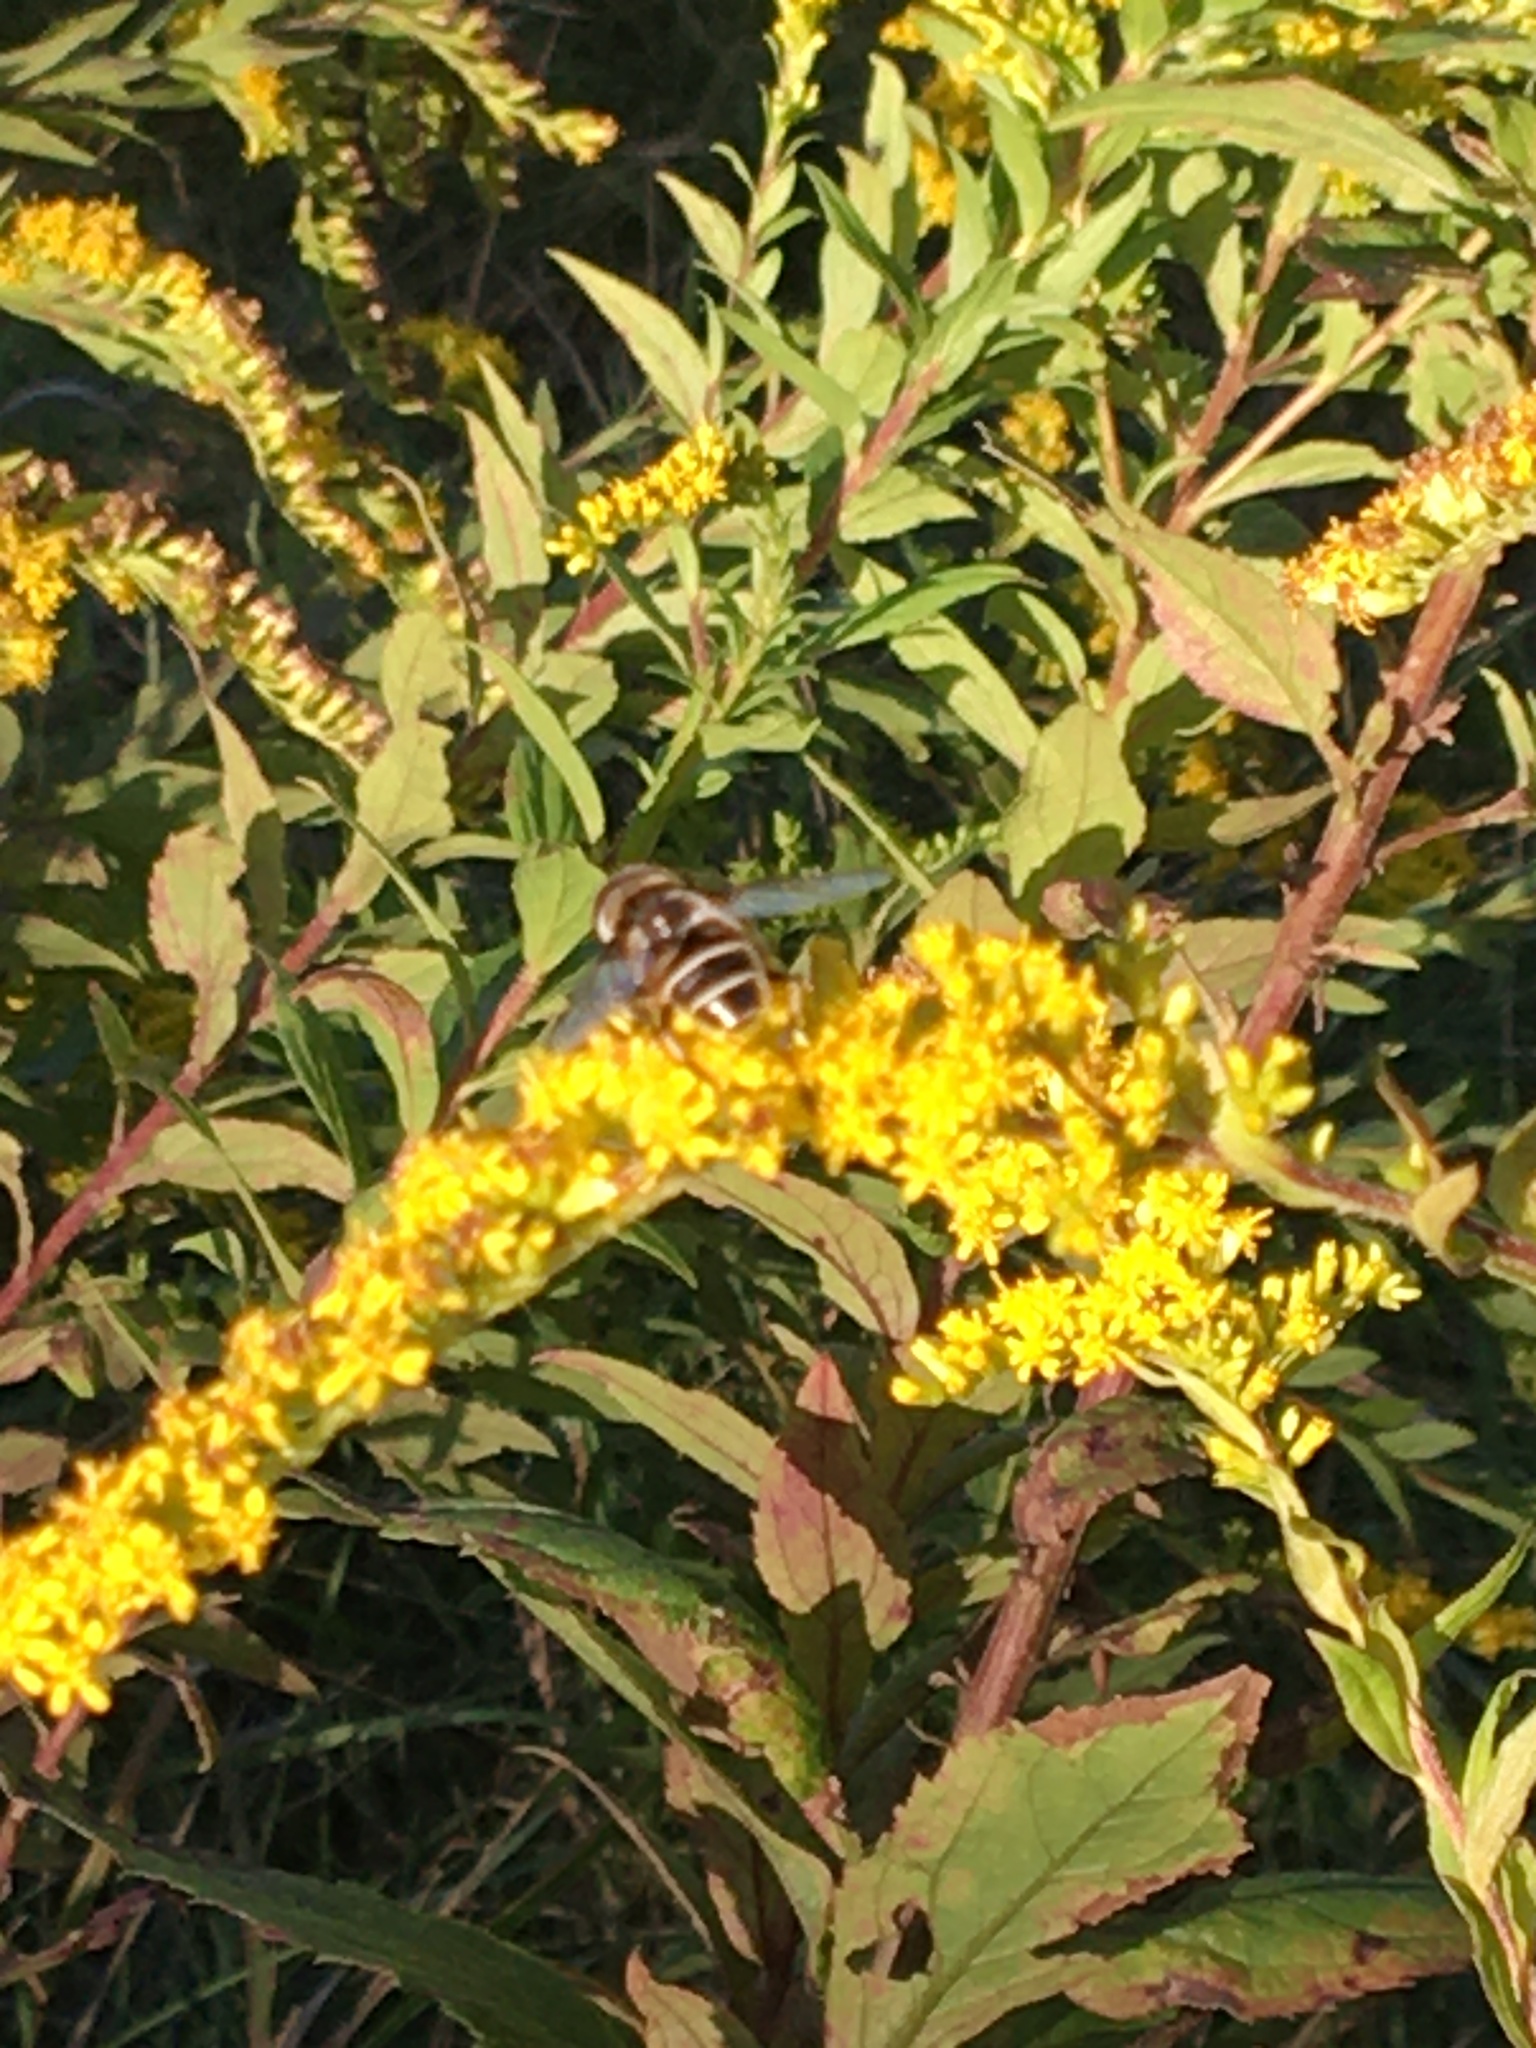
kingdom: Animalia
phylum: Arthropoda
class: Insecta
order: Diptera
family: Syrphidae
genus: Eristalis
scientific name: Eristalis dimidiata
